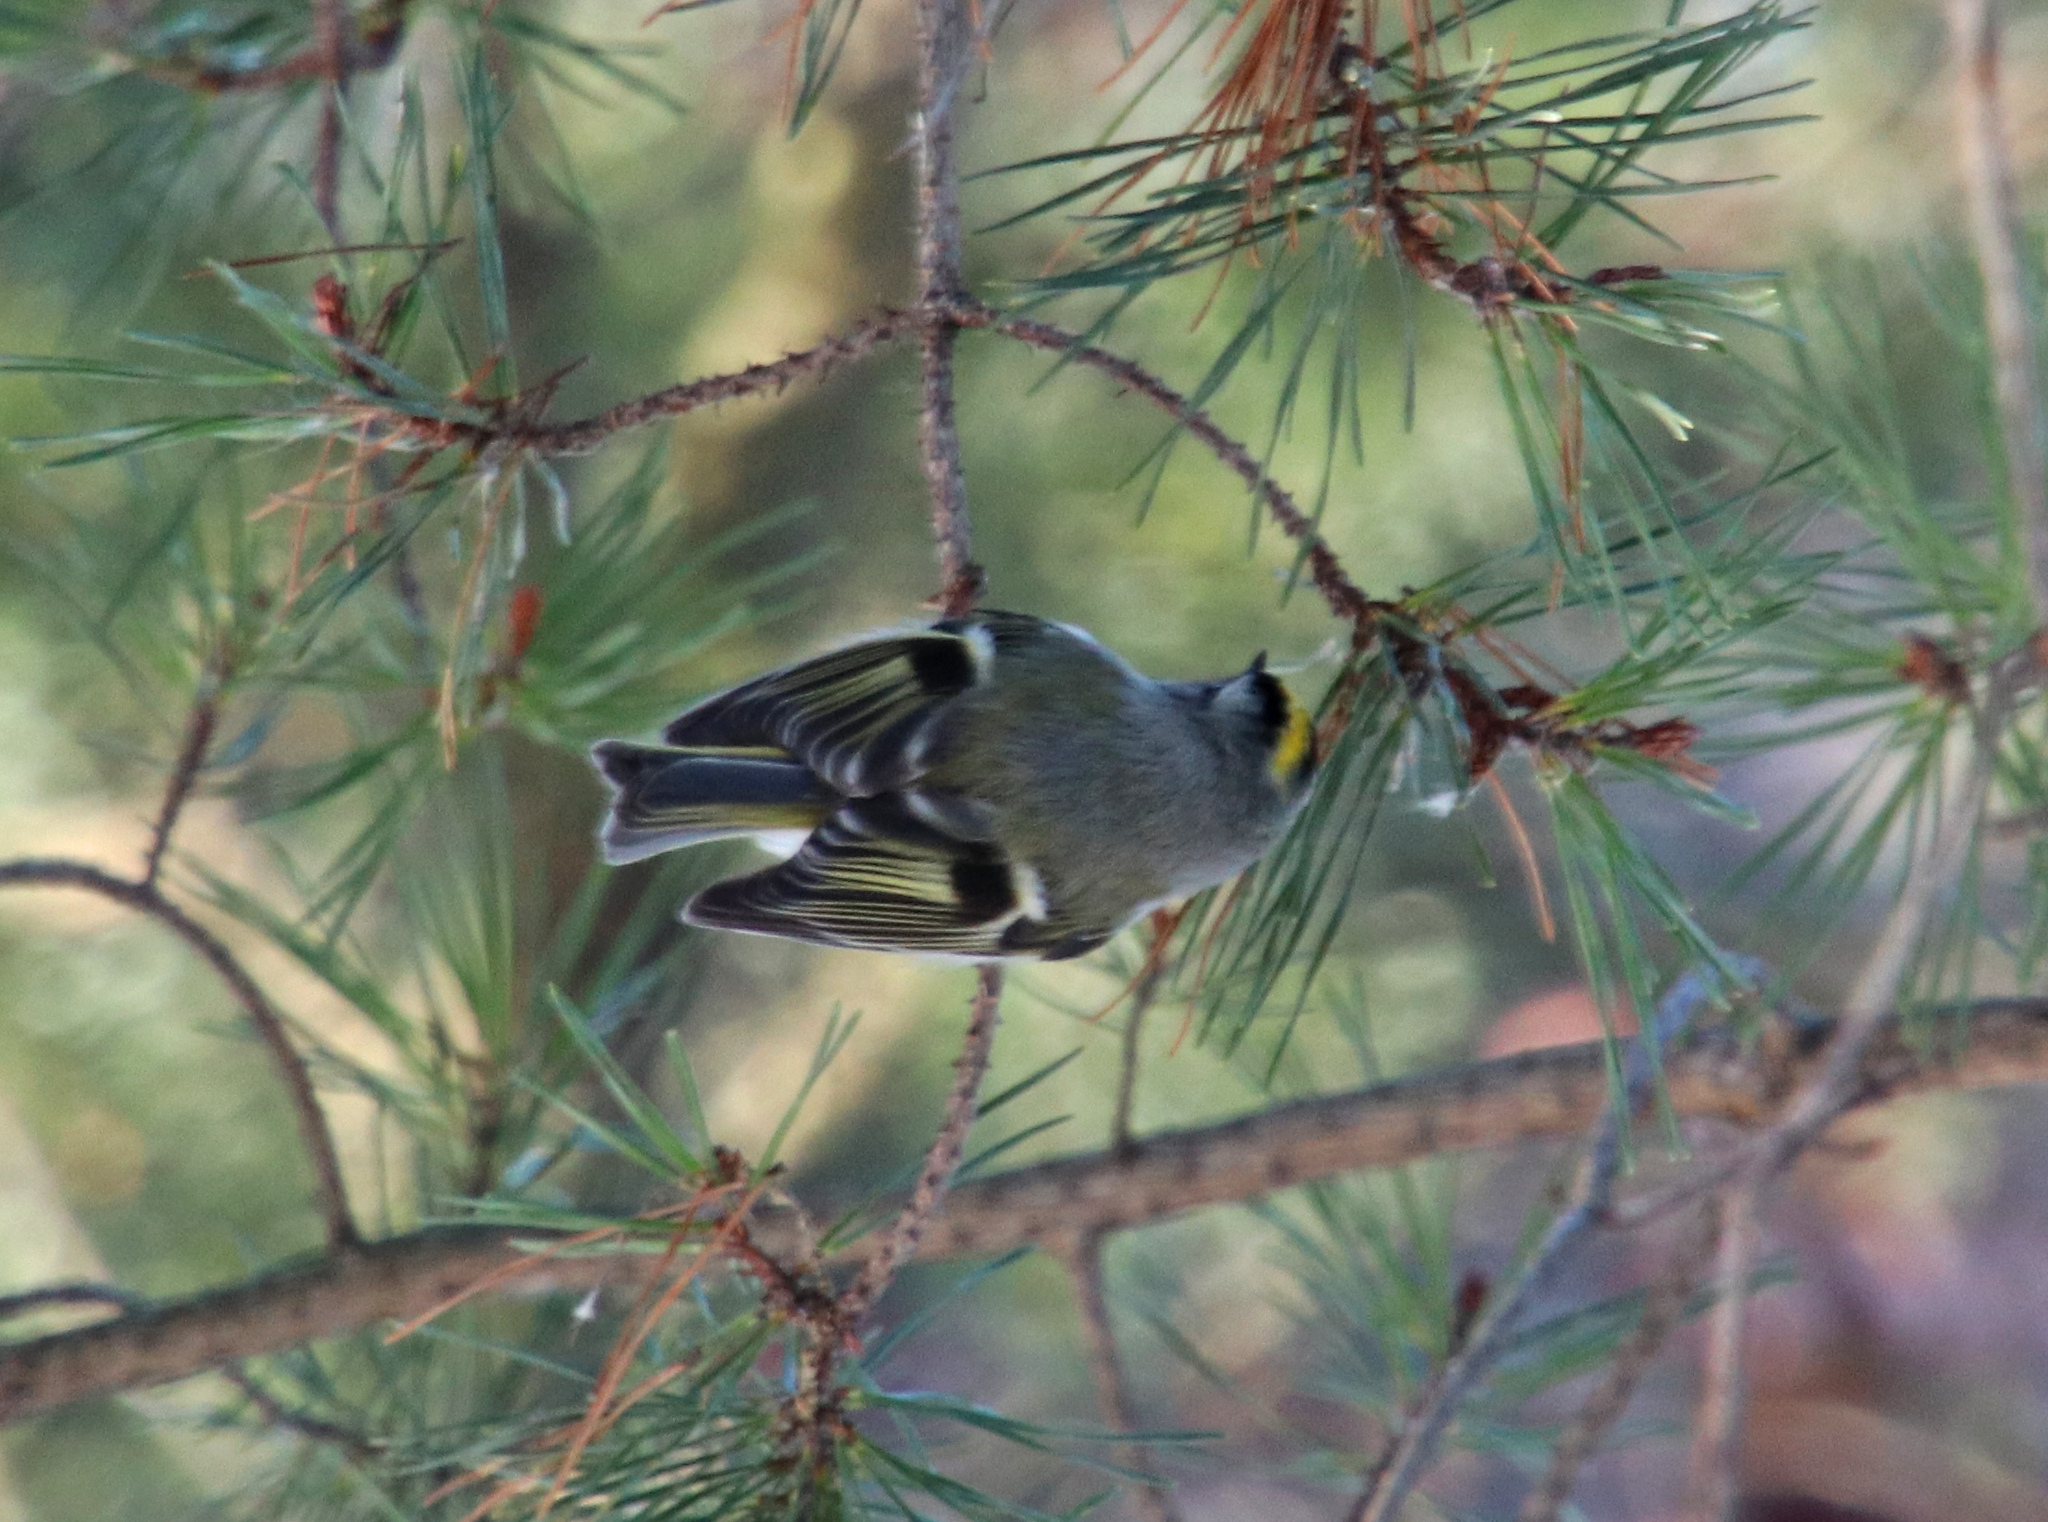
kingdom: Animalia
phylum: Chordata
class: Aves
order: Passeriformes
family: Regulidae
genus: Regulus
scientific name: Regulus satrapa
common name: Golden-crowned kinglet
